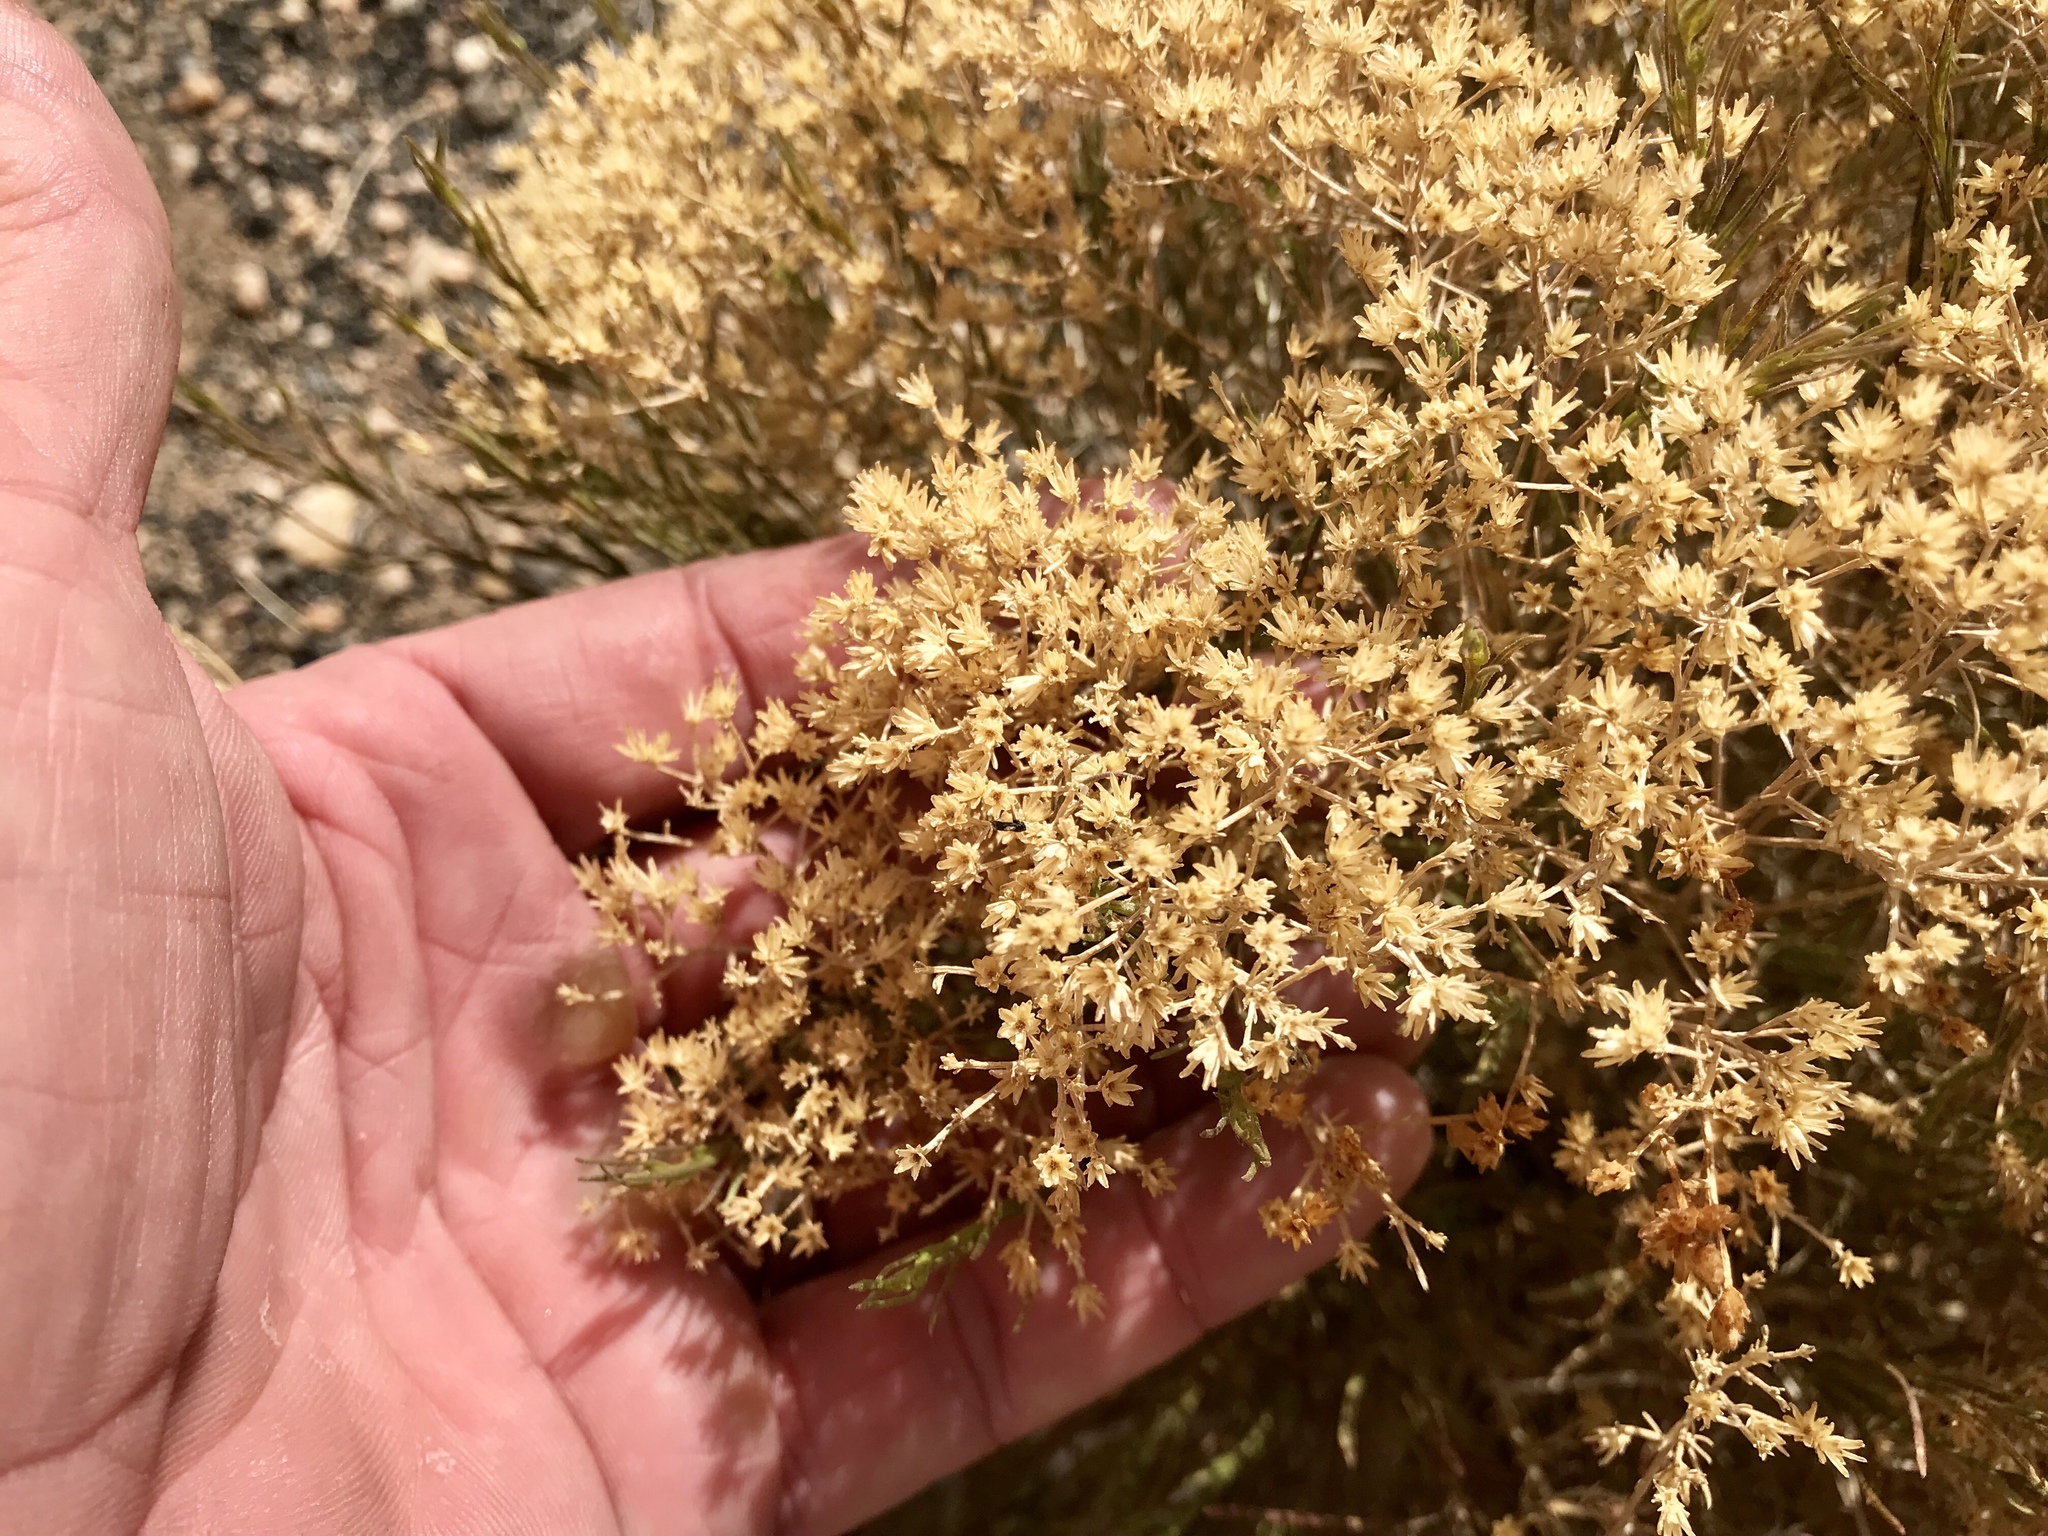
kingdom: Plantae
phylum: Tracheophyta
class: Magnoliopsida
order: Asterales
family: Asteraceae
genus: Gutierrezia
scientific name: Gutierrezia sarothrae
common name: Broom snakeweed
